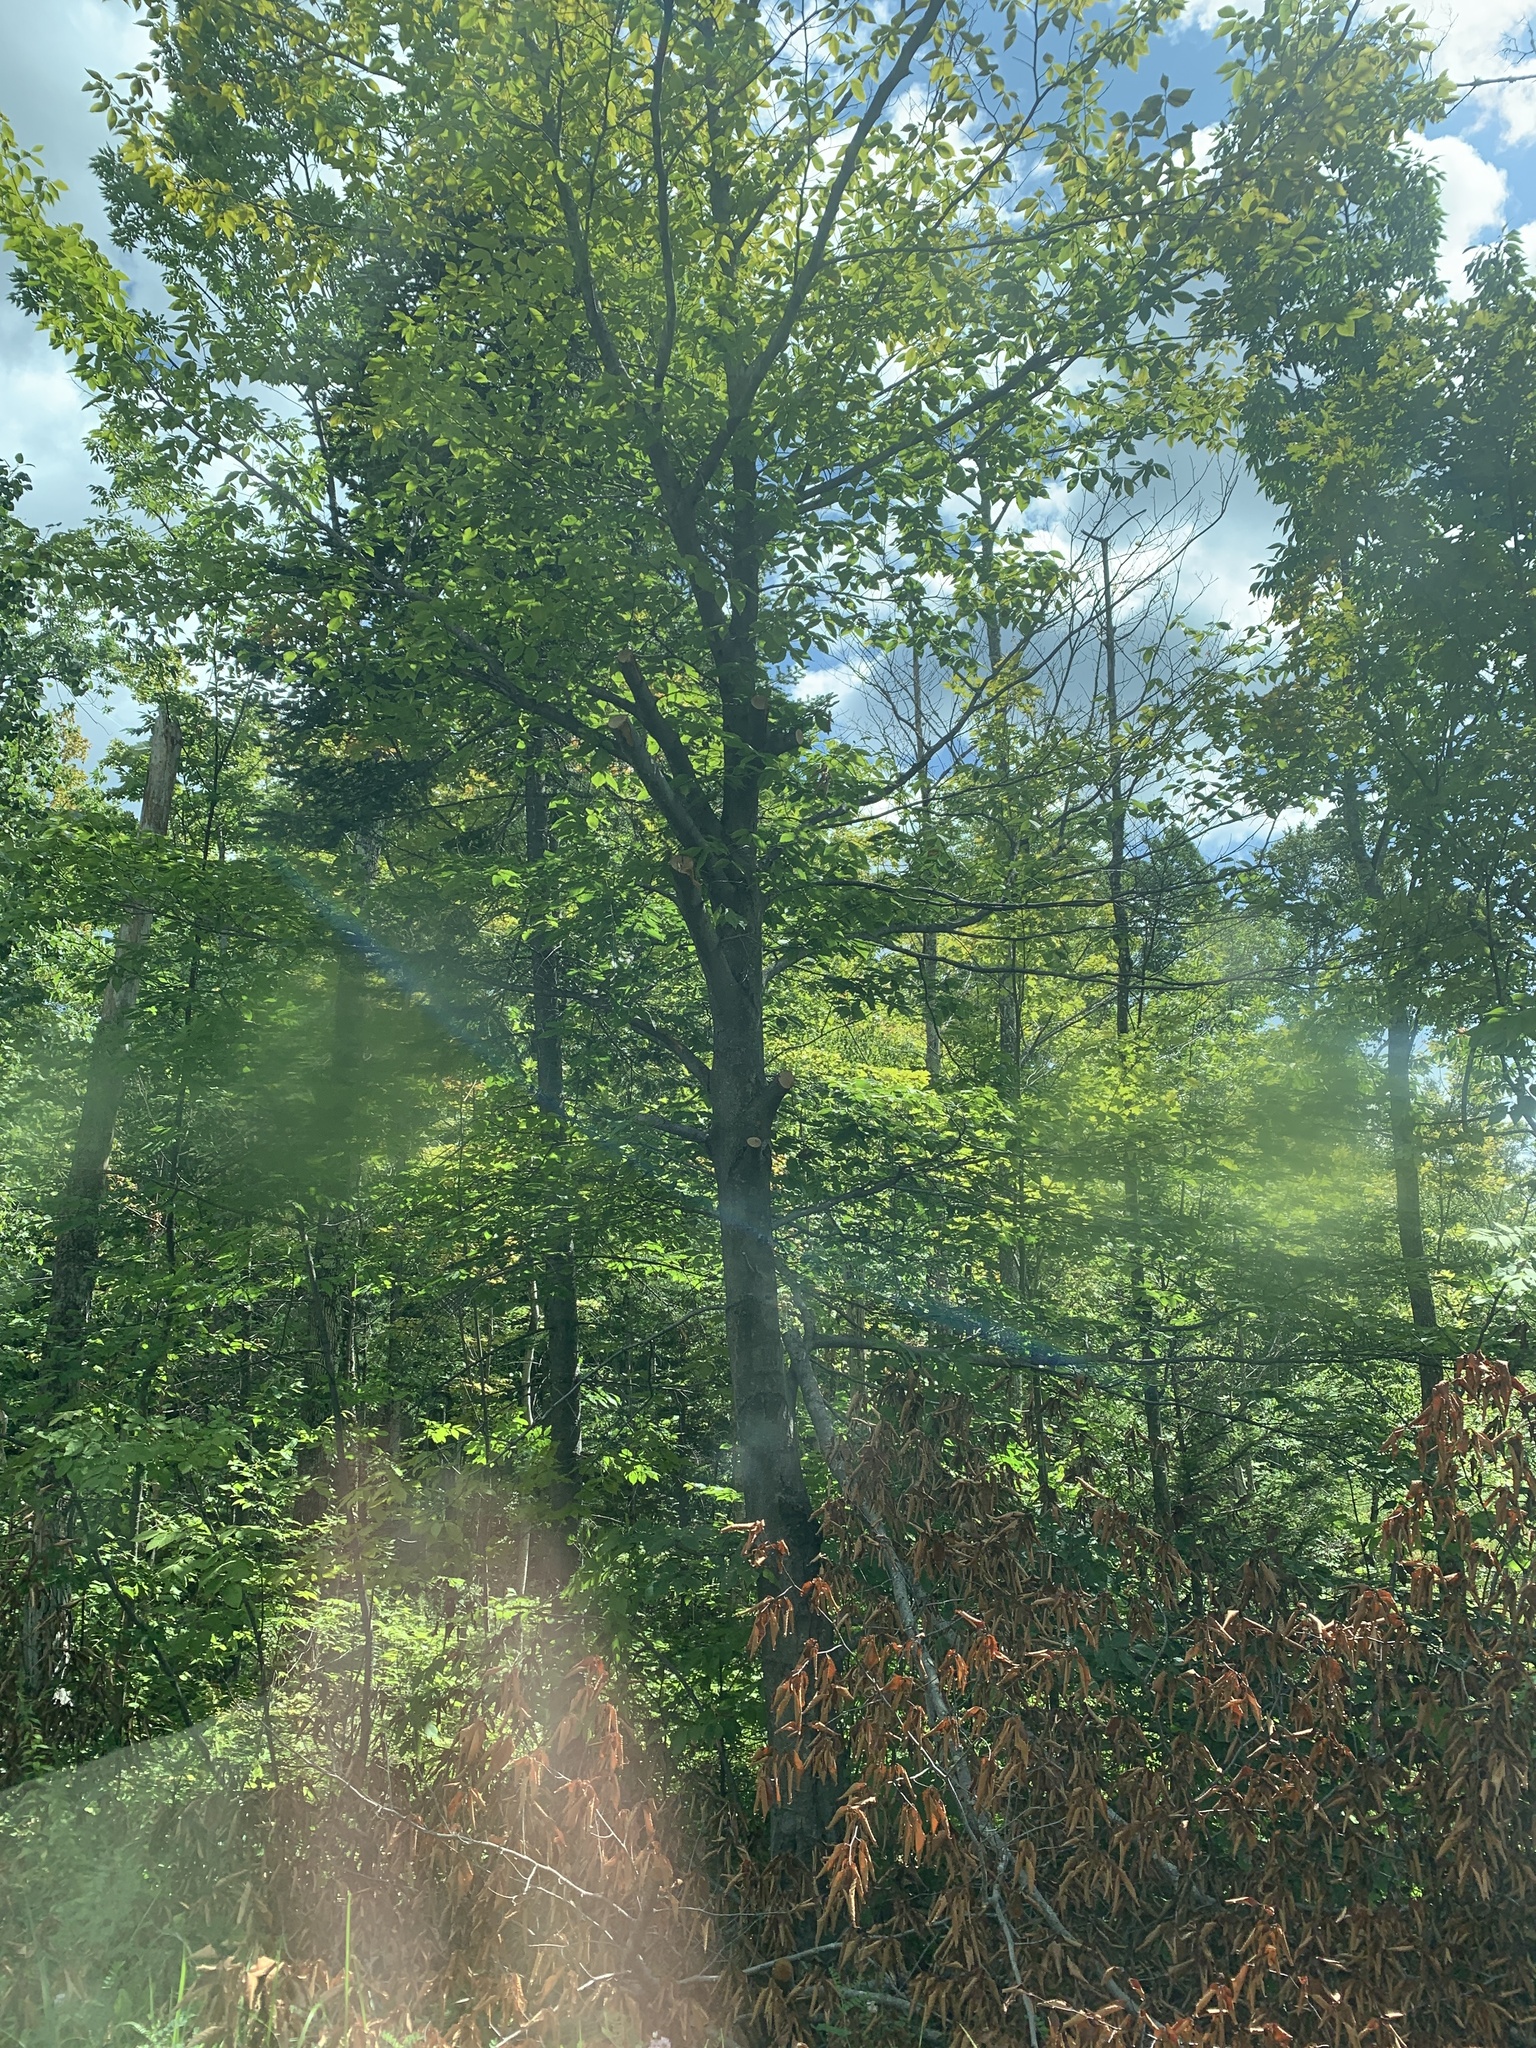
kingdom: Plantae
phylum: Tracheophyta
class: Magnoliopsida
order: Fagales
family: Fagaceae
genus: Fagus
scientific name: Fagus grandifolia
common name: American beech
